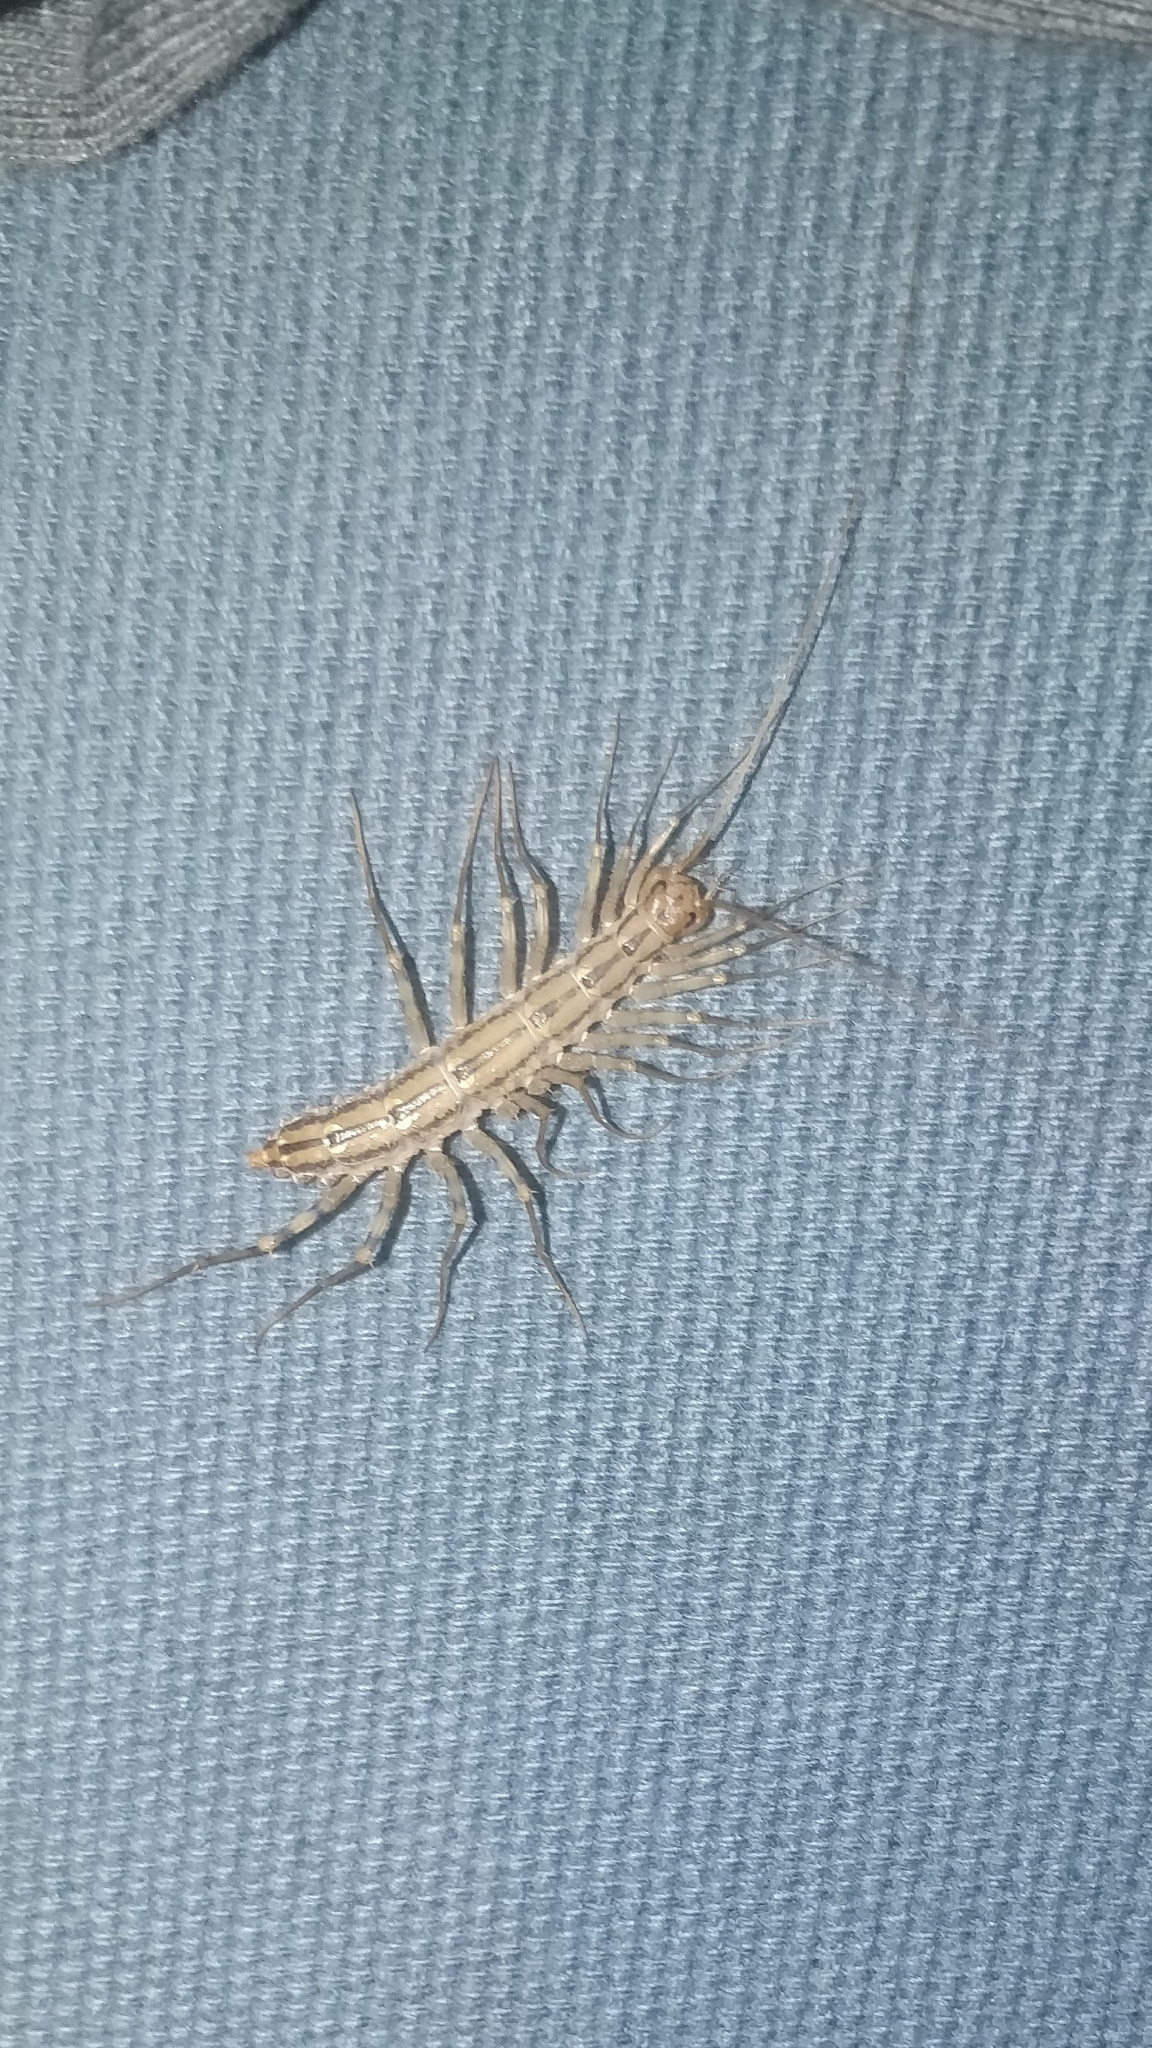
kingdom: Animalia
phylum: Arthropoda
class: Chilopoda
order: Scutigeromorpha
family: Scutigeridae
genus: Scutigera
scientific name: Scutigera coleoptrata
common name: House centipede
